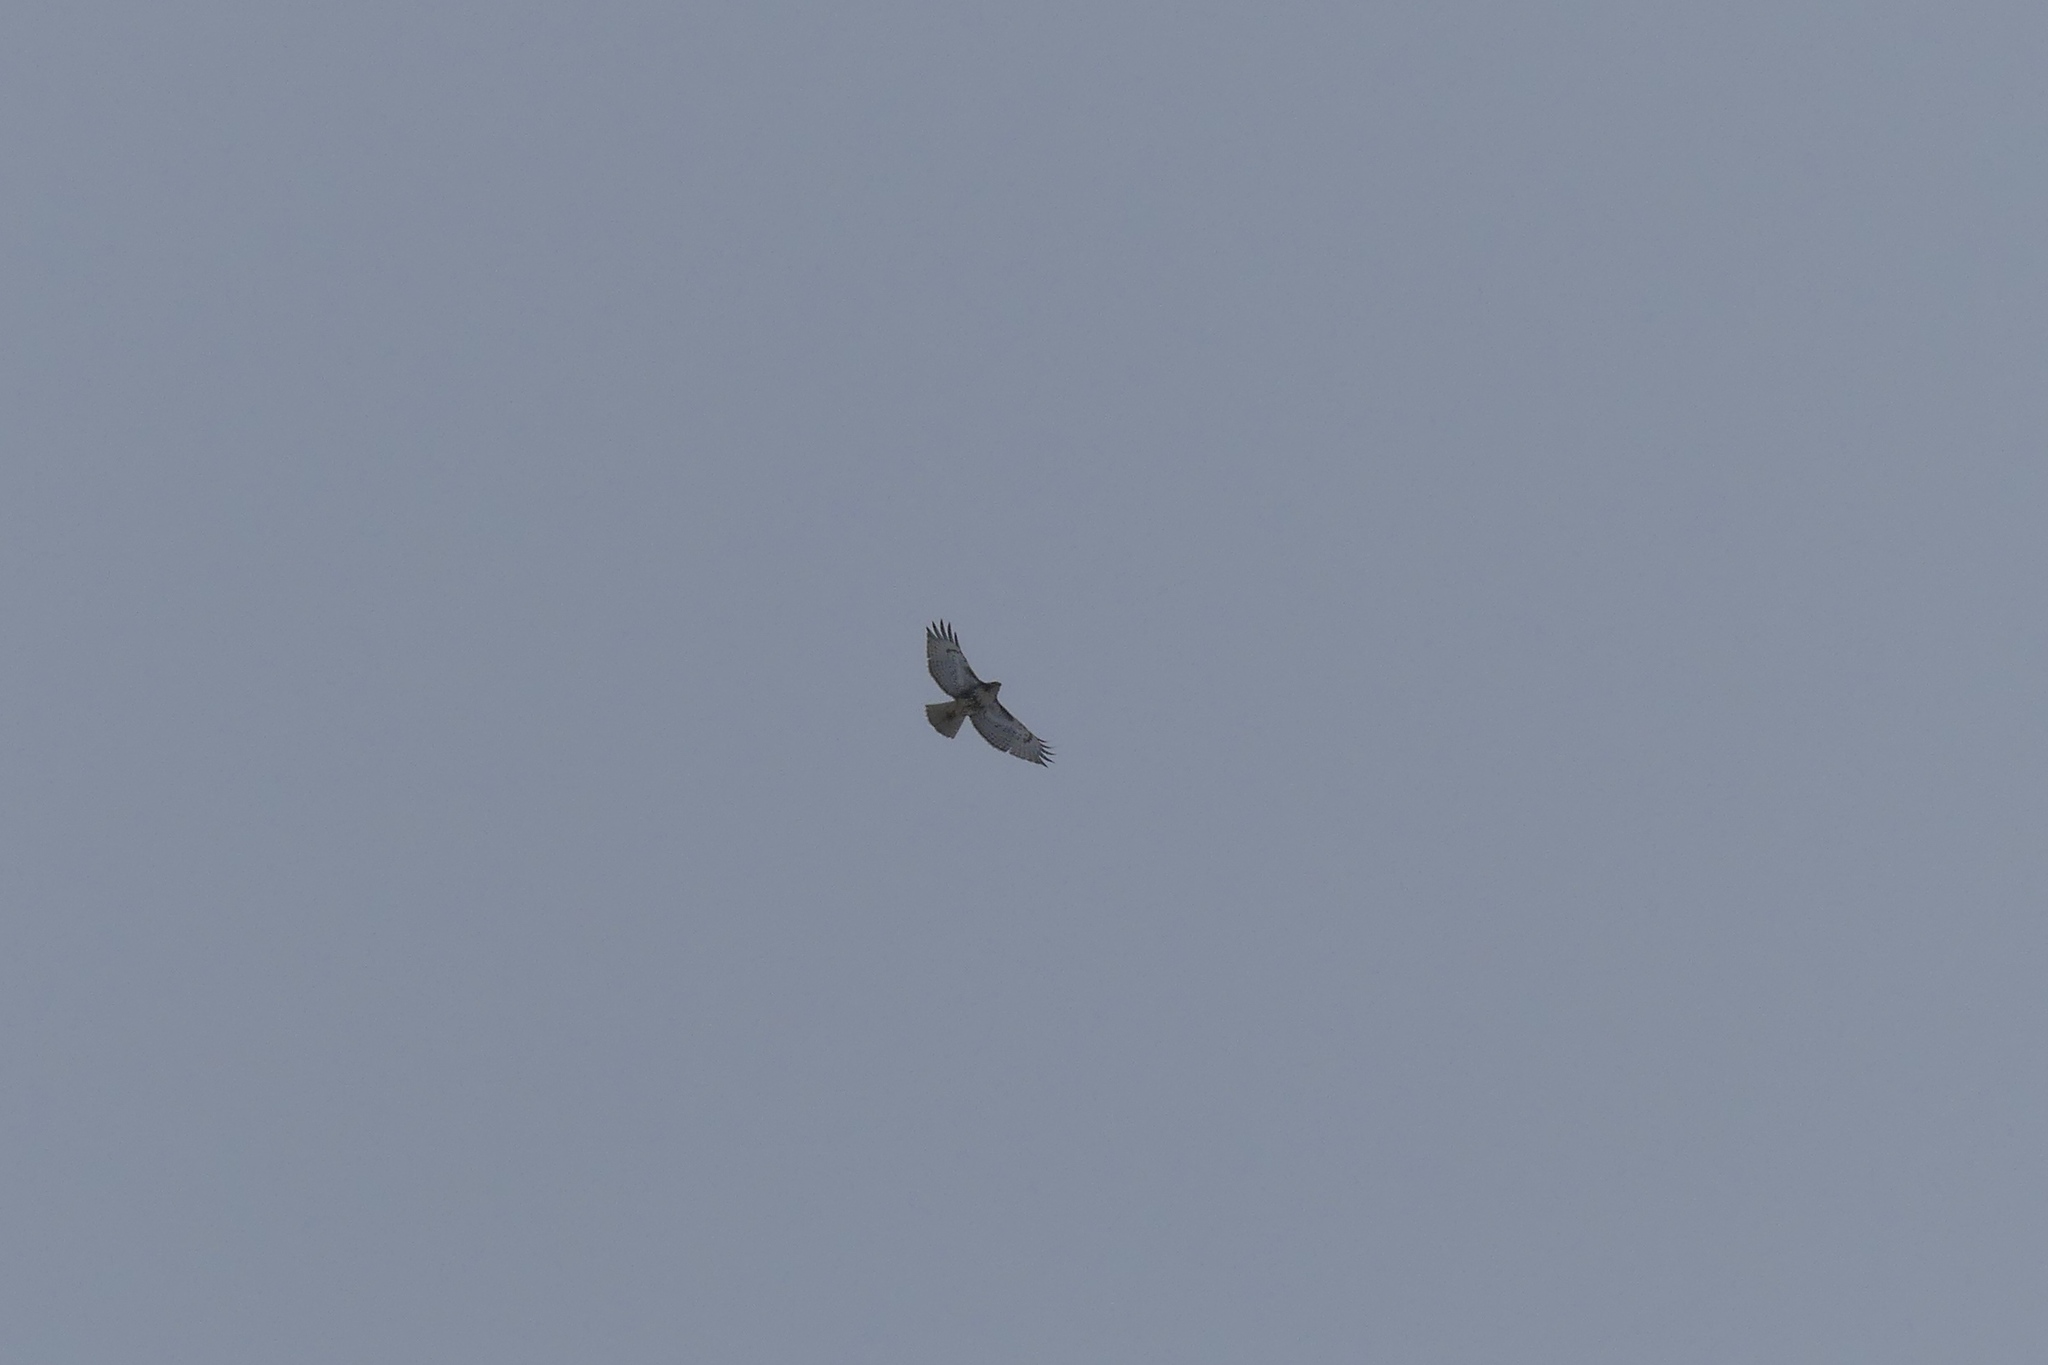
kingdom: Animalia
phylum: Chordata
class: Aves
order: Accipitriformes
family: Accipitridae
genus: Buteo
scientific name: Buteo jamaicensis
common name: Red-tailed hawk
